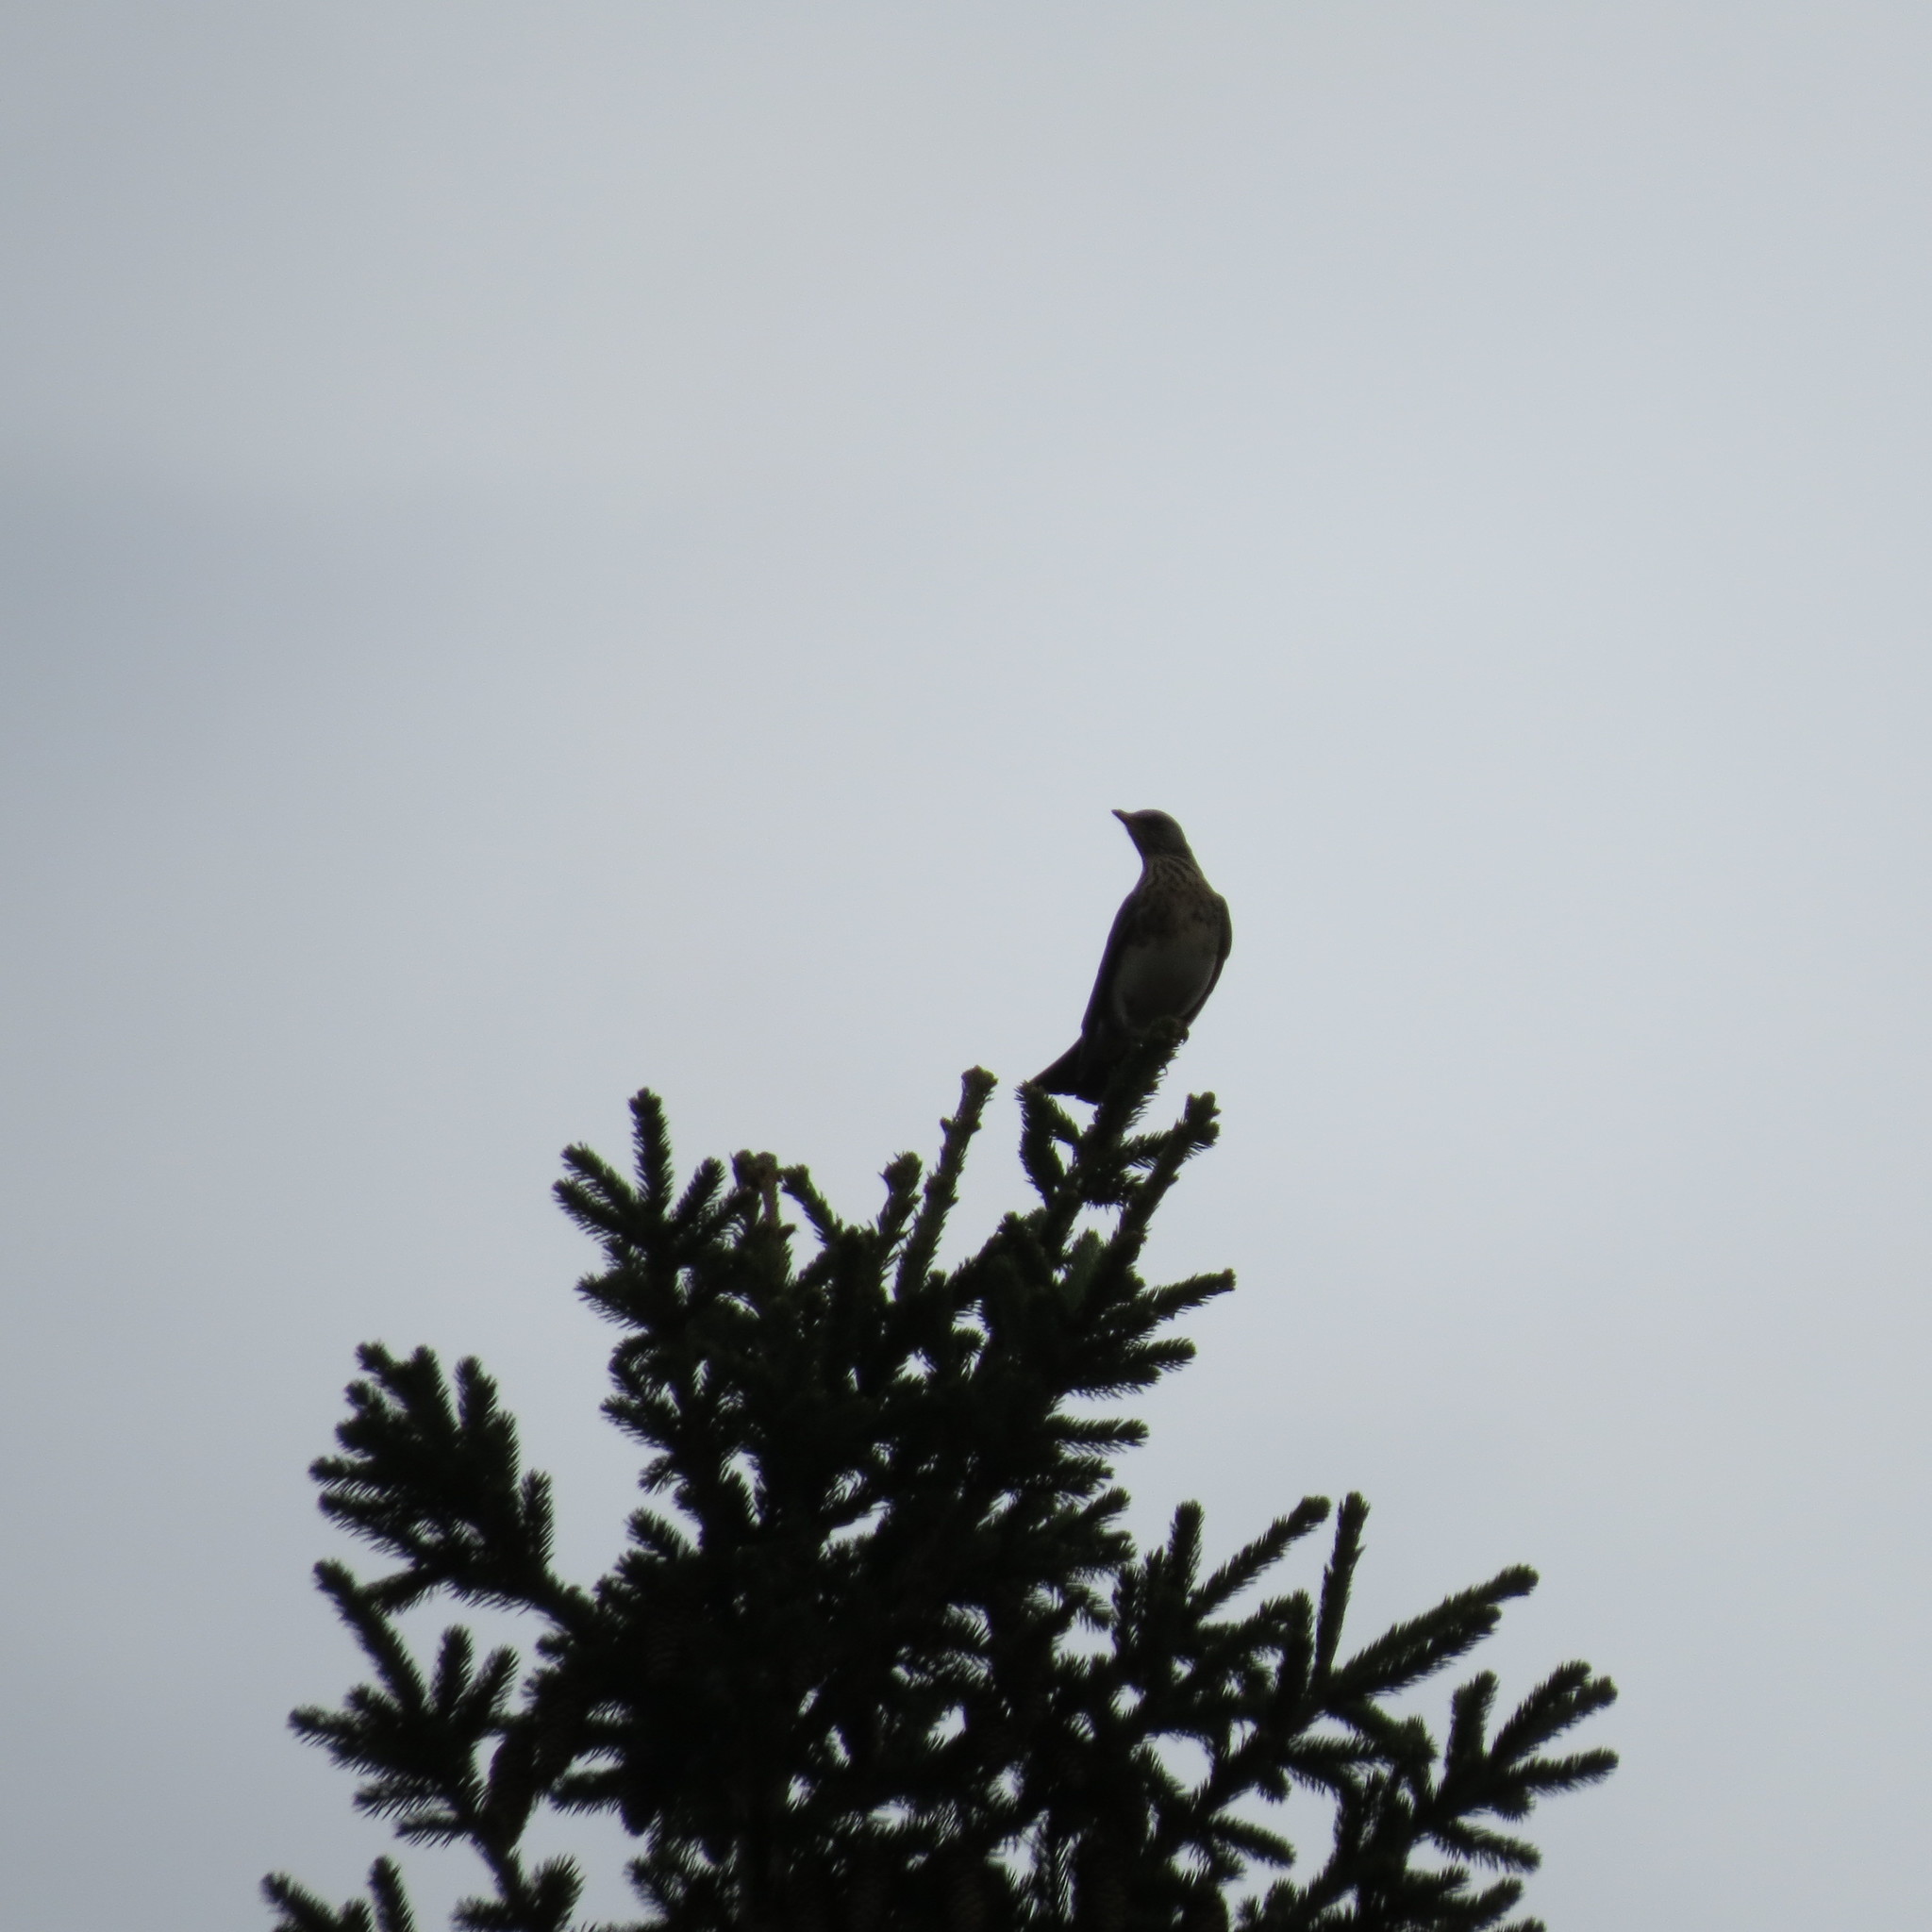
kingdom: Animalia
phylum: Chordata
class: Aves
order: Passeriformes
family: Turdidae
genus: Turdus
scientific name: Turdus pilaris
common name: Fieldfare
